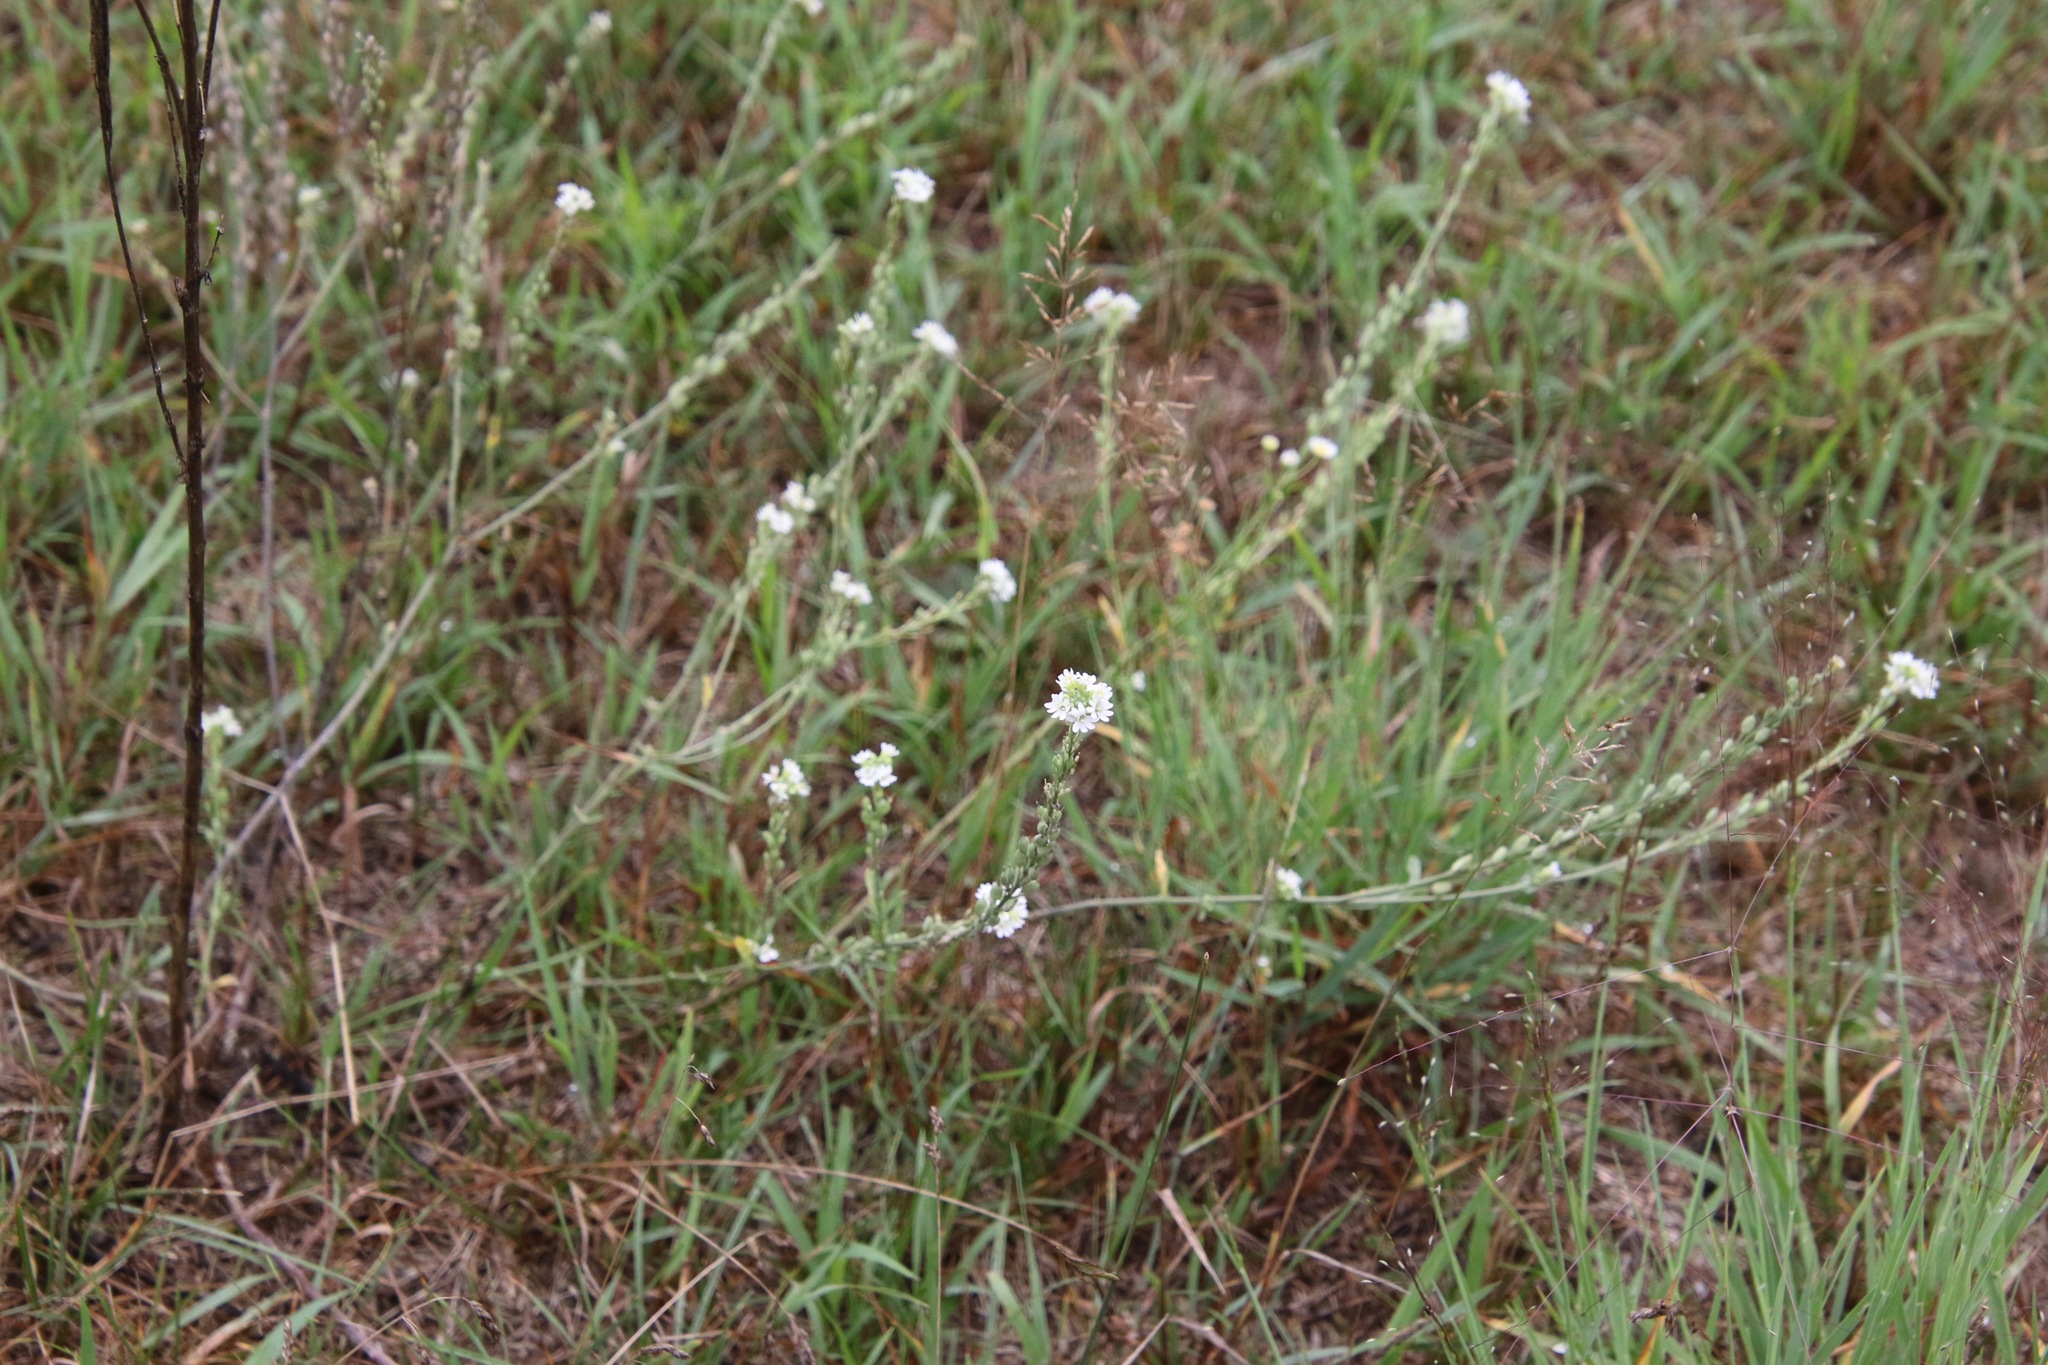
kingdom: Plantae
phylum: Tracheophyta
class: Magnoliopsida
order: Brassicales
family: Brassicaceae
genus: Berteroa
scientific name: Berteroa incana
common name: Hoary alison
